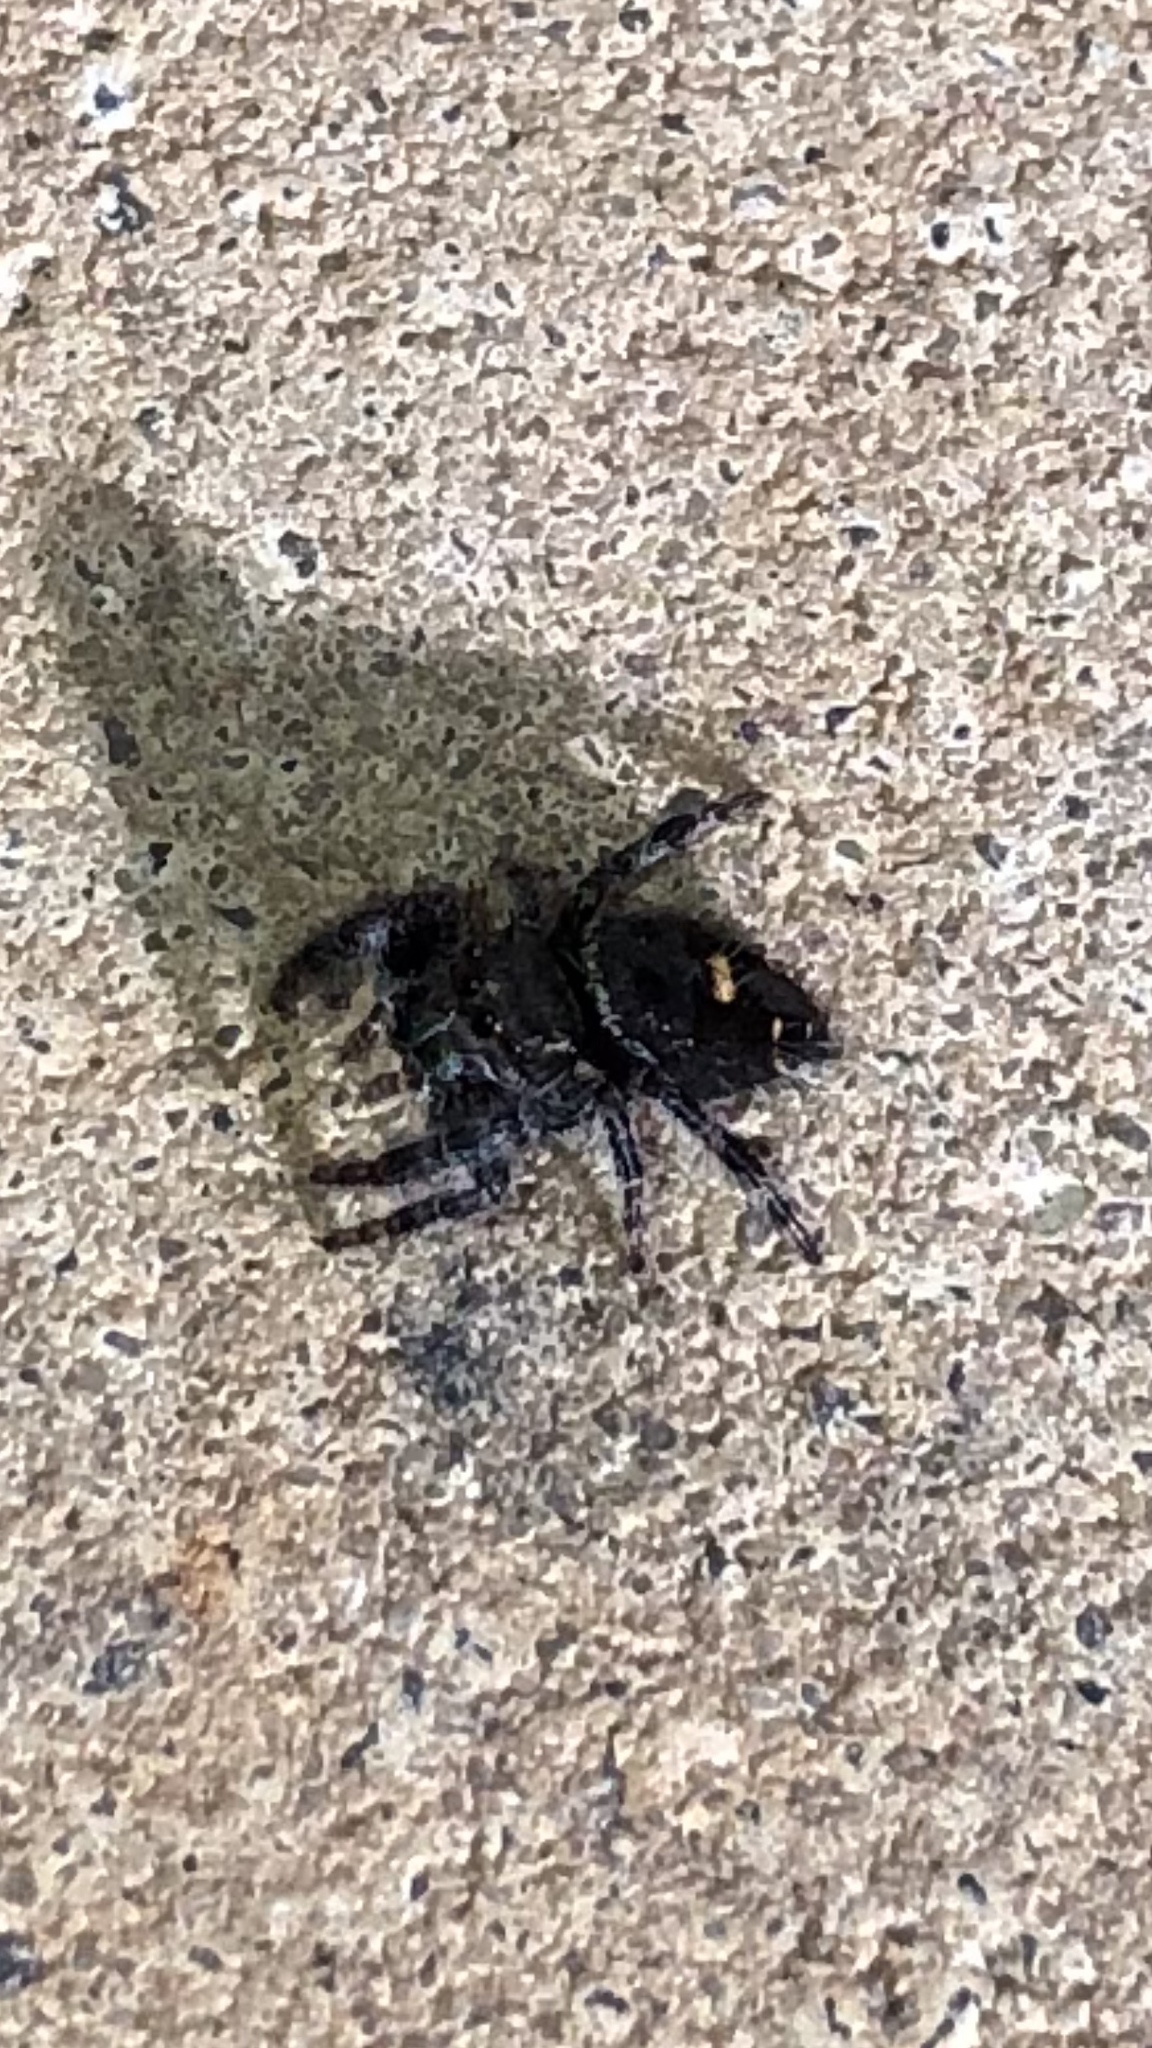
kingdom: Animalia
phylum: Arthropoda
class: Arachnida
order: Araneae
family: Salticidae
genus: Phidippus
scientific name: Phidippus audax
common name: Bold jumper
